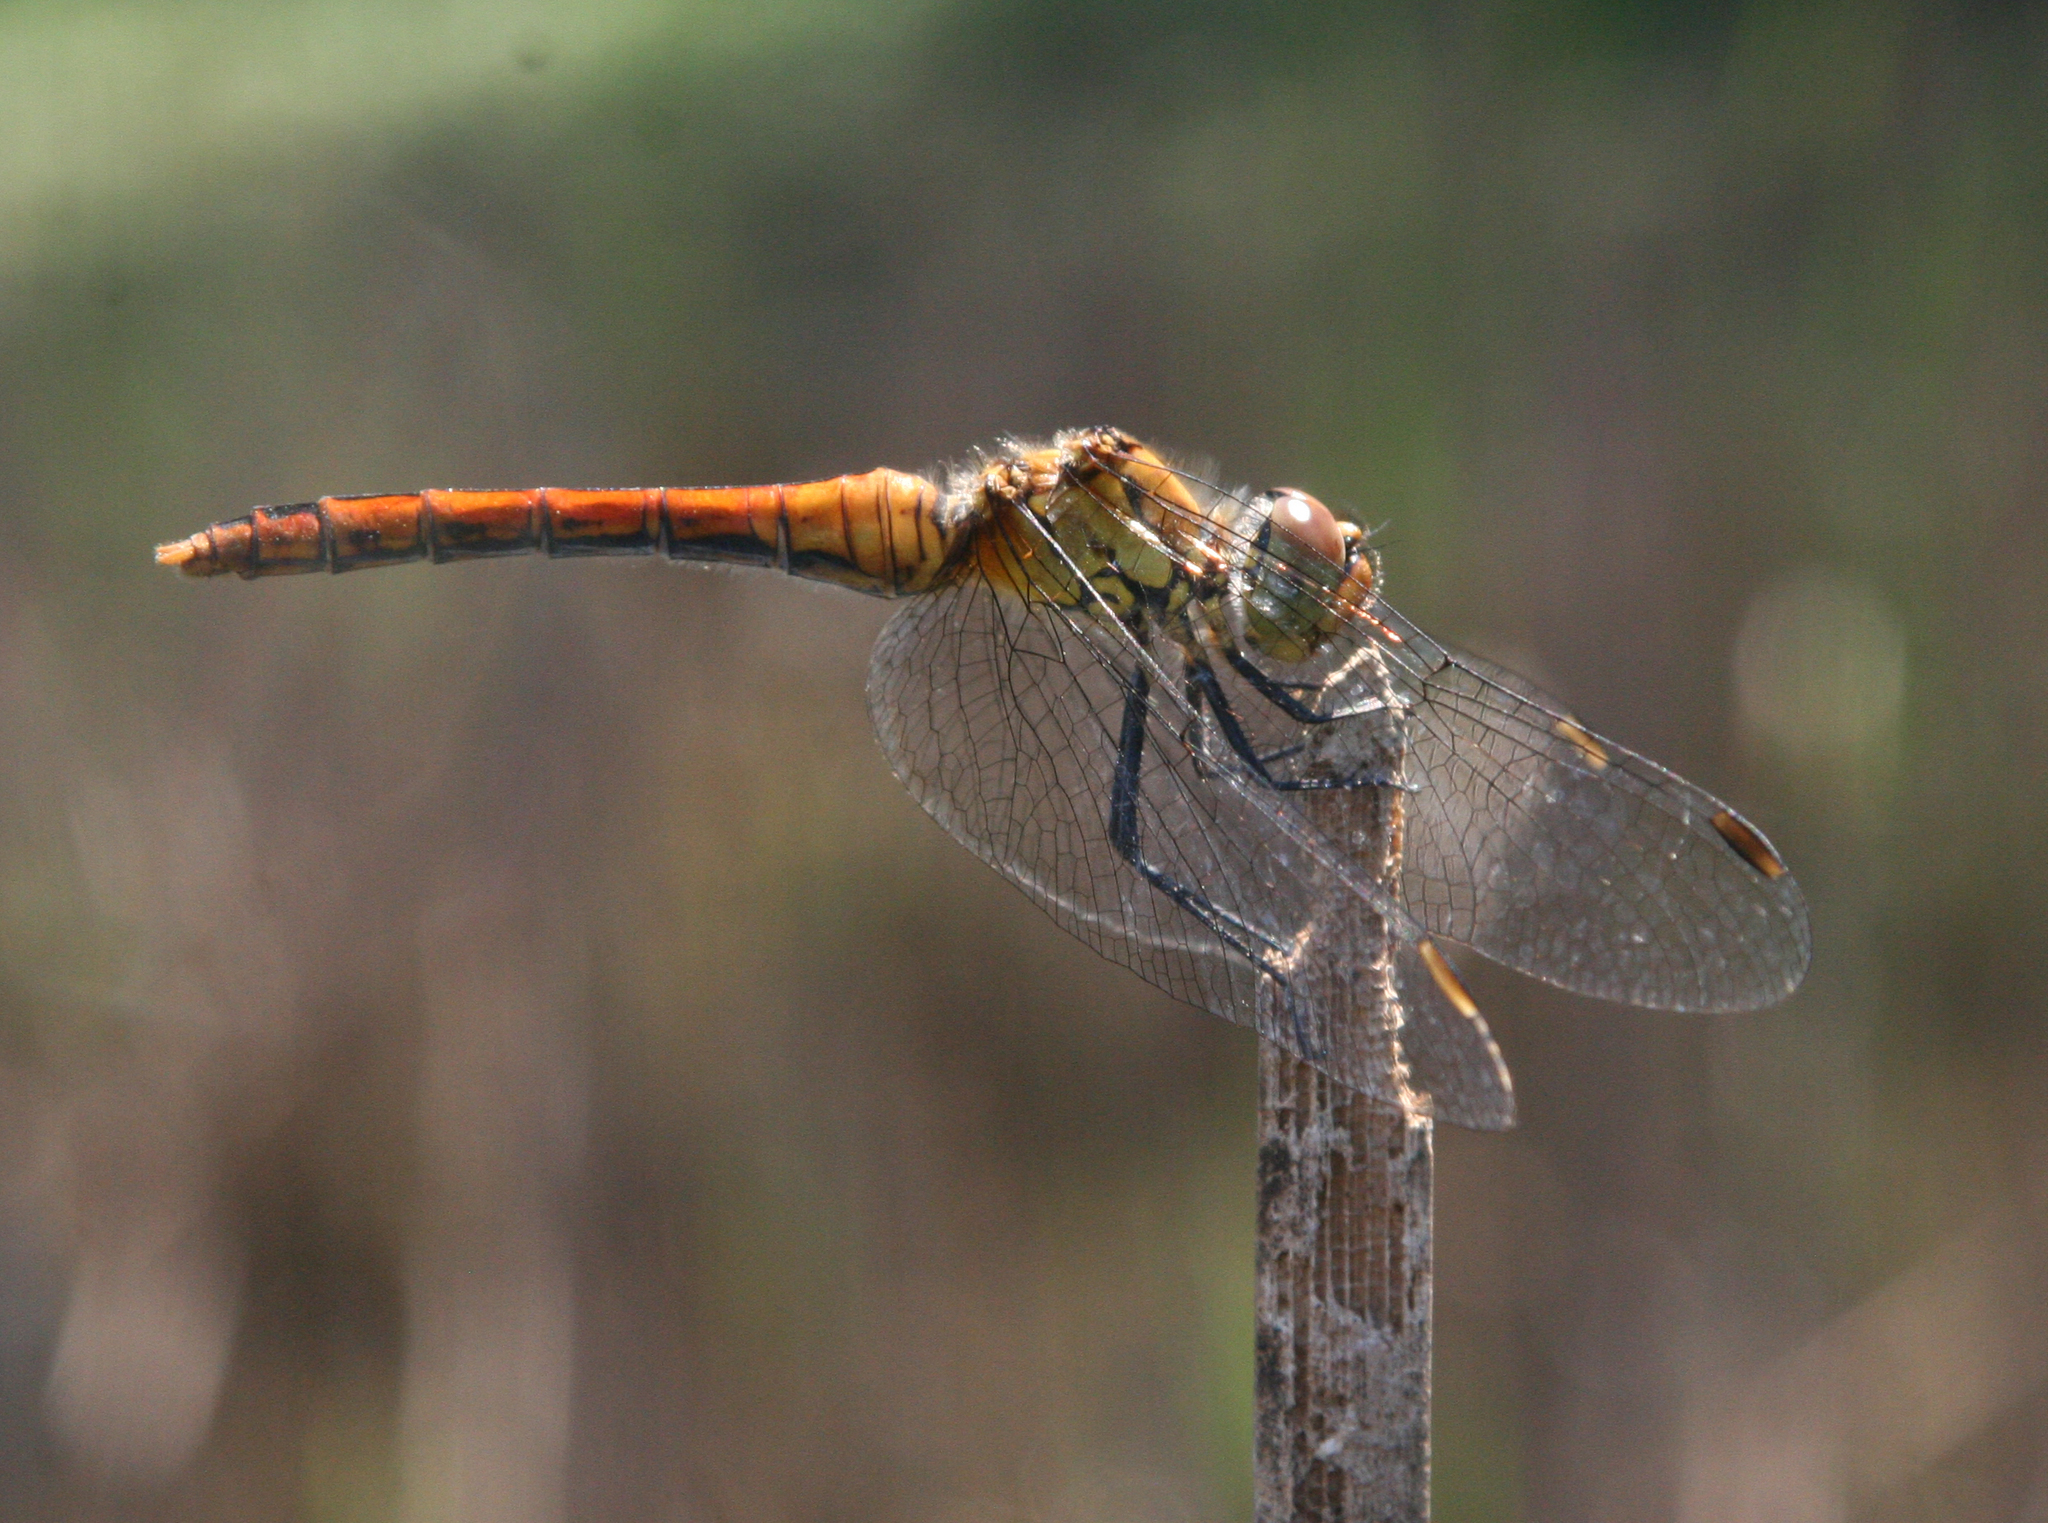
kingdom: Animalia
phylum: Arthropoda
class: Insecta
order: Odonata
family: Libellulidae
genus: Sympetrum
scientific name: Sympetrum sanguineum
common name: Ruddy darter
